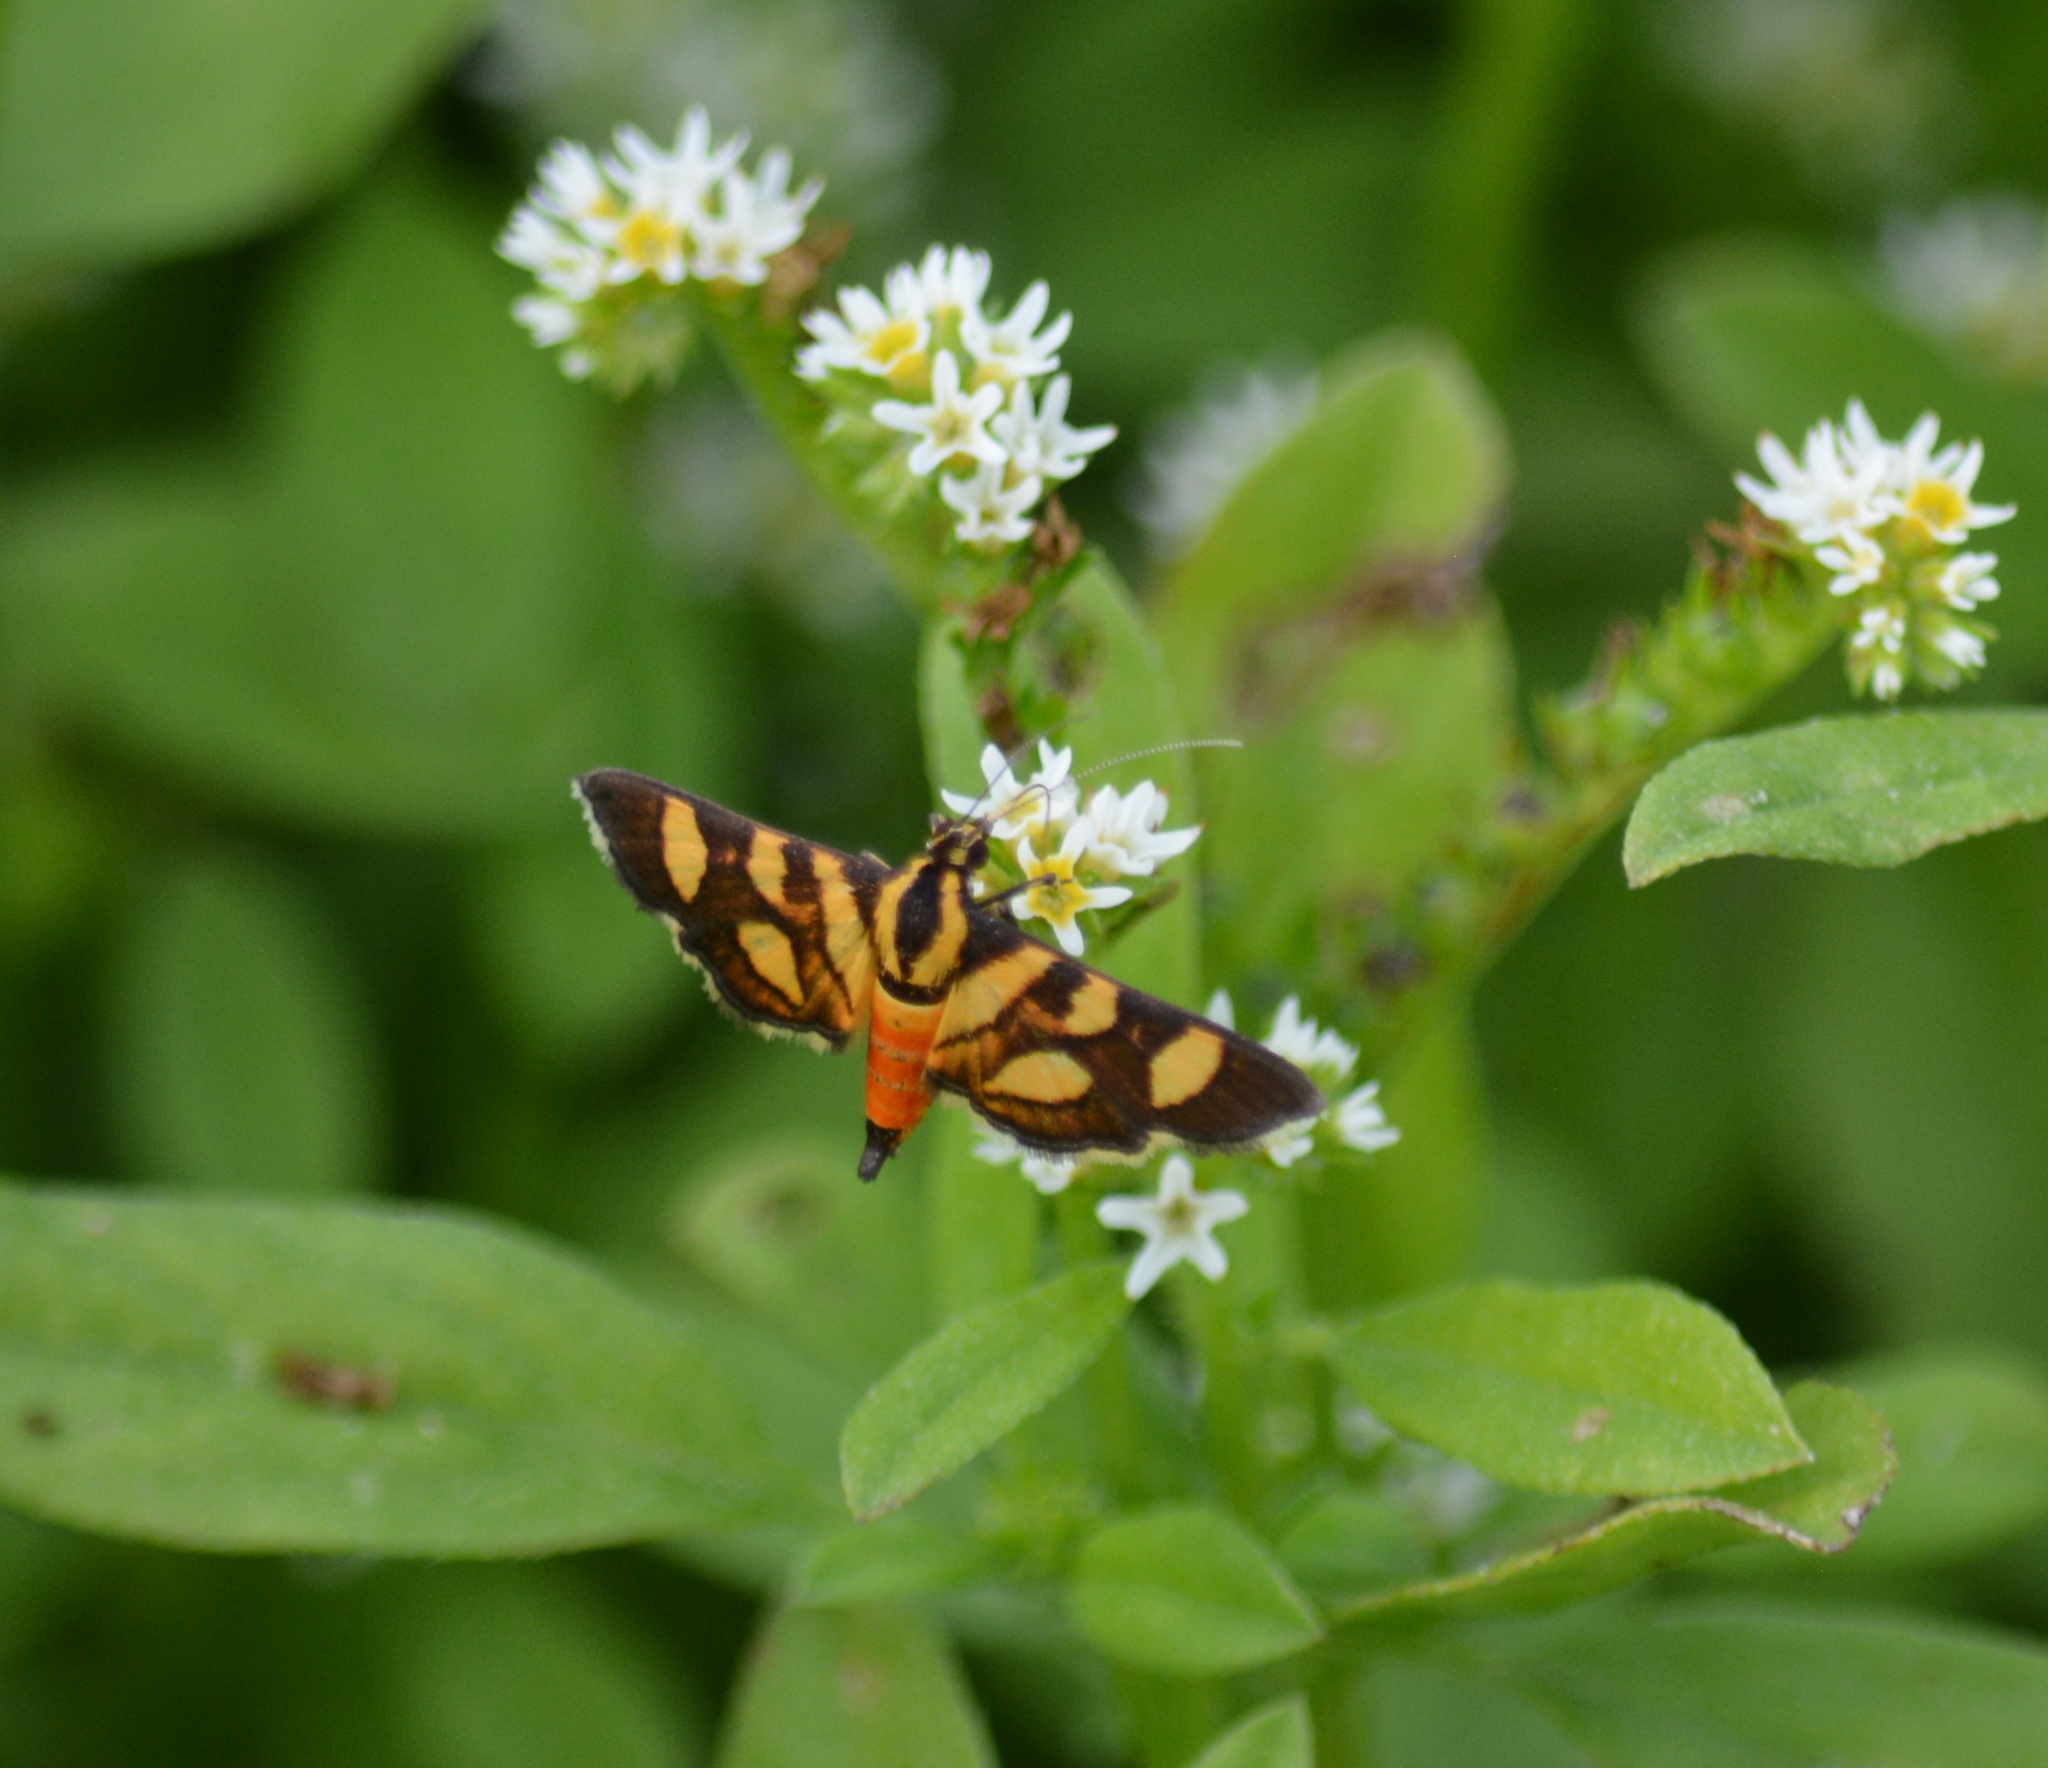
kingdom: Animalia
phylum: Arthropoda
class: Insecta
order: Lepidoptera
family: Crambidae
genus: Syngamia
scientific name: Syngamia florella
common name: Orange-spotted flower moth
